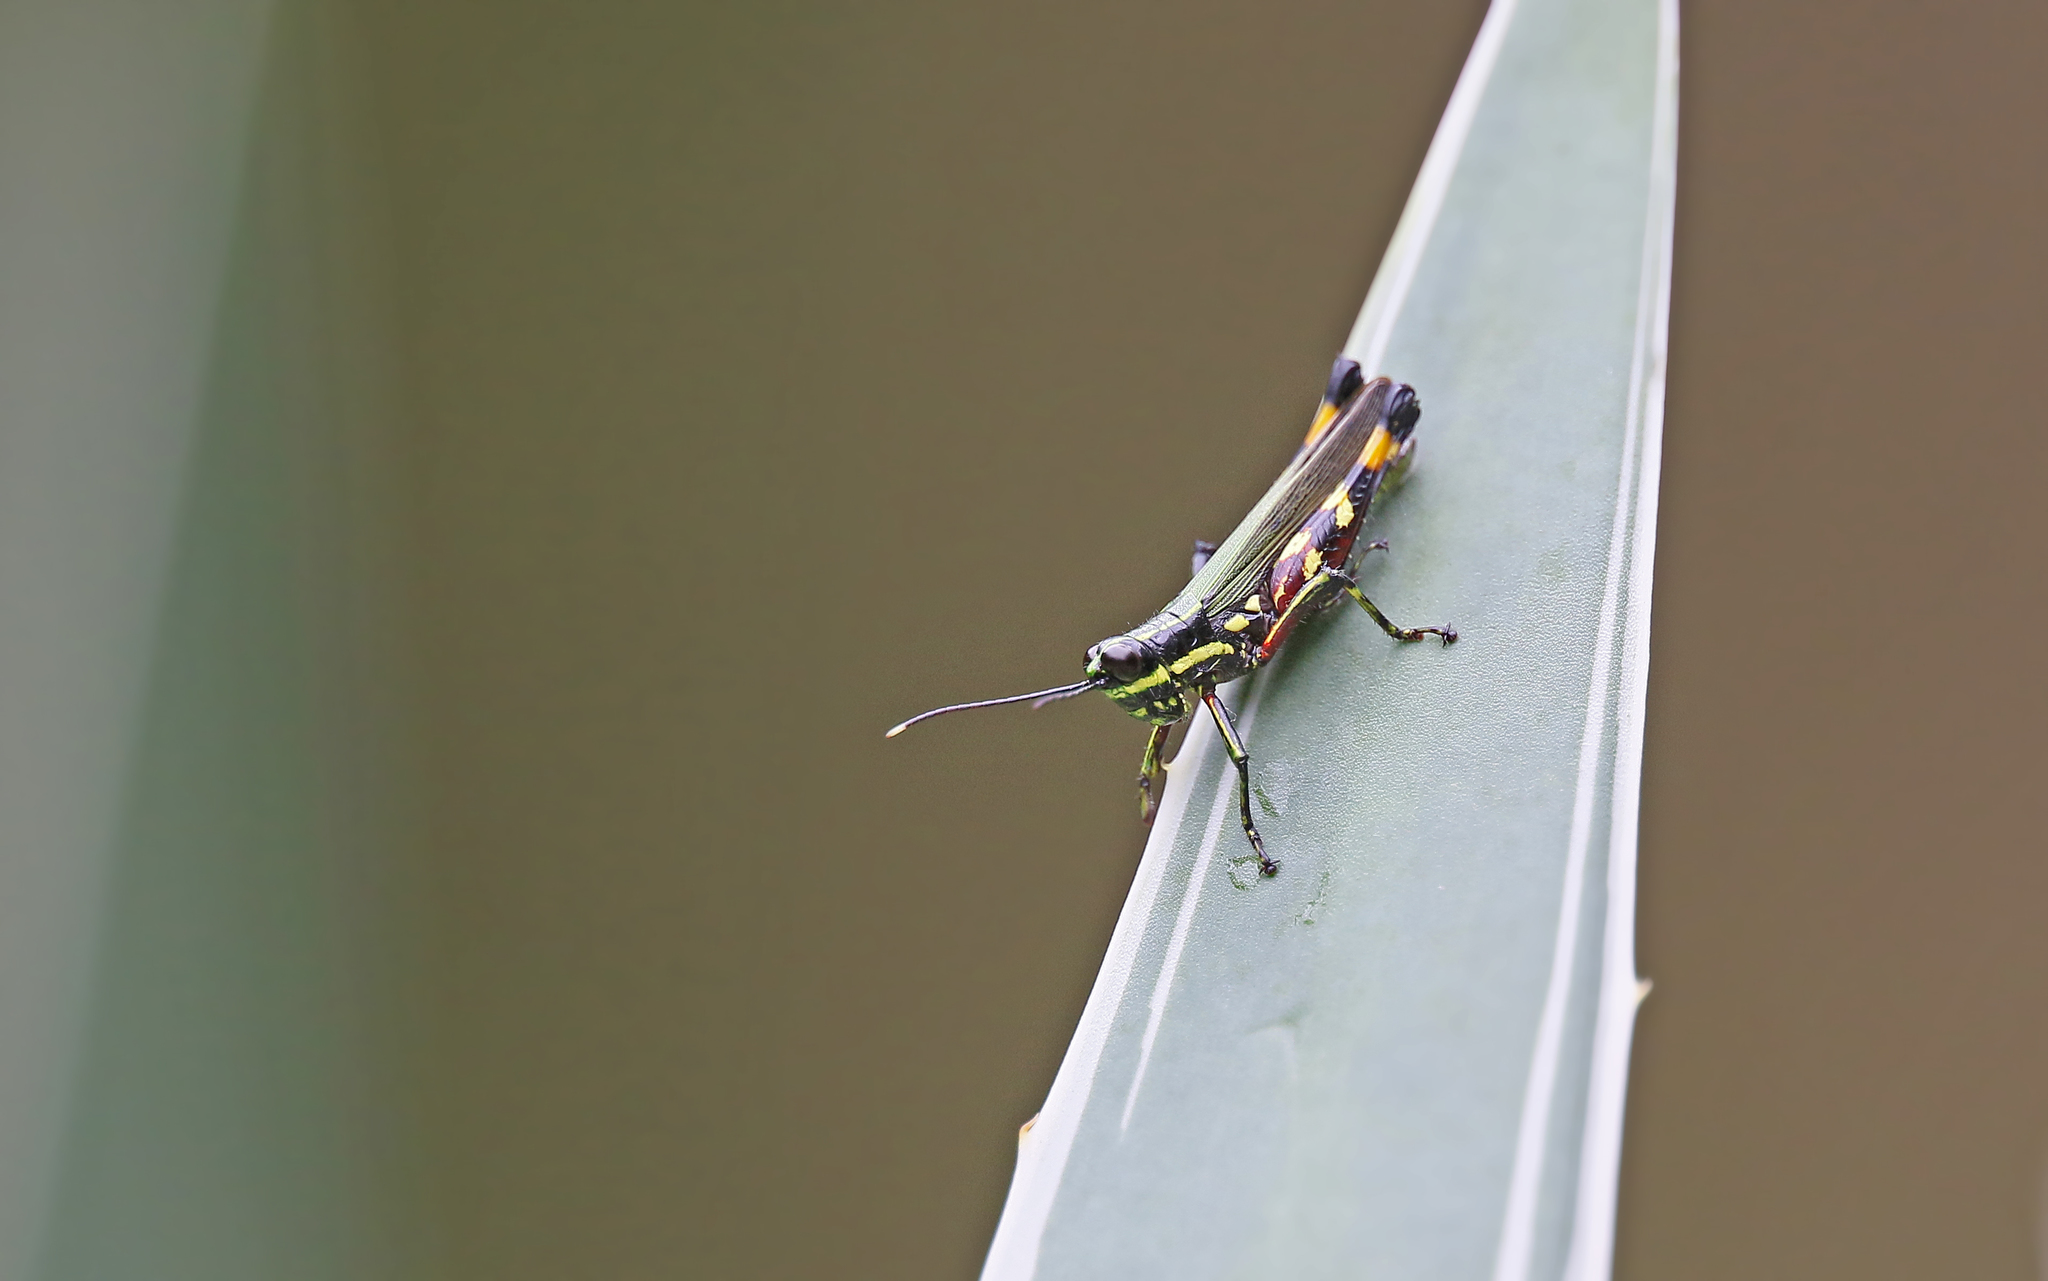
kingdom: Animalia
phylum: Arthropoda
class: Insecta
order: Orthoptera
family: Acrididae
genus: Tetrataenia
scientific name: Tetrataenia surinama
